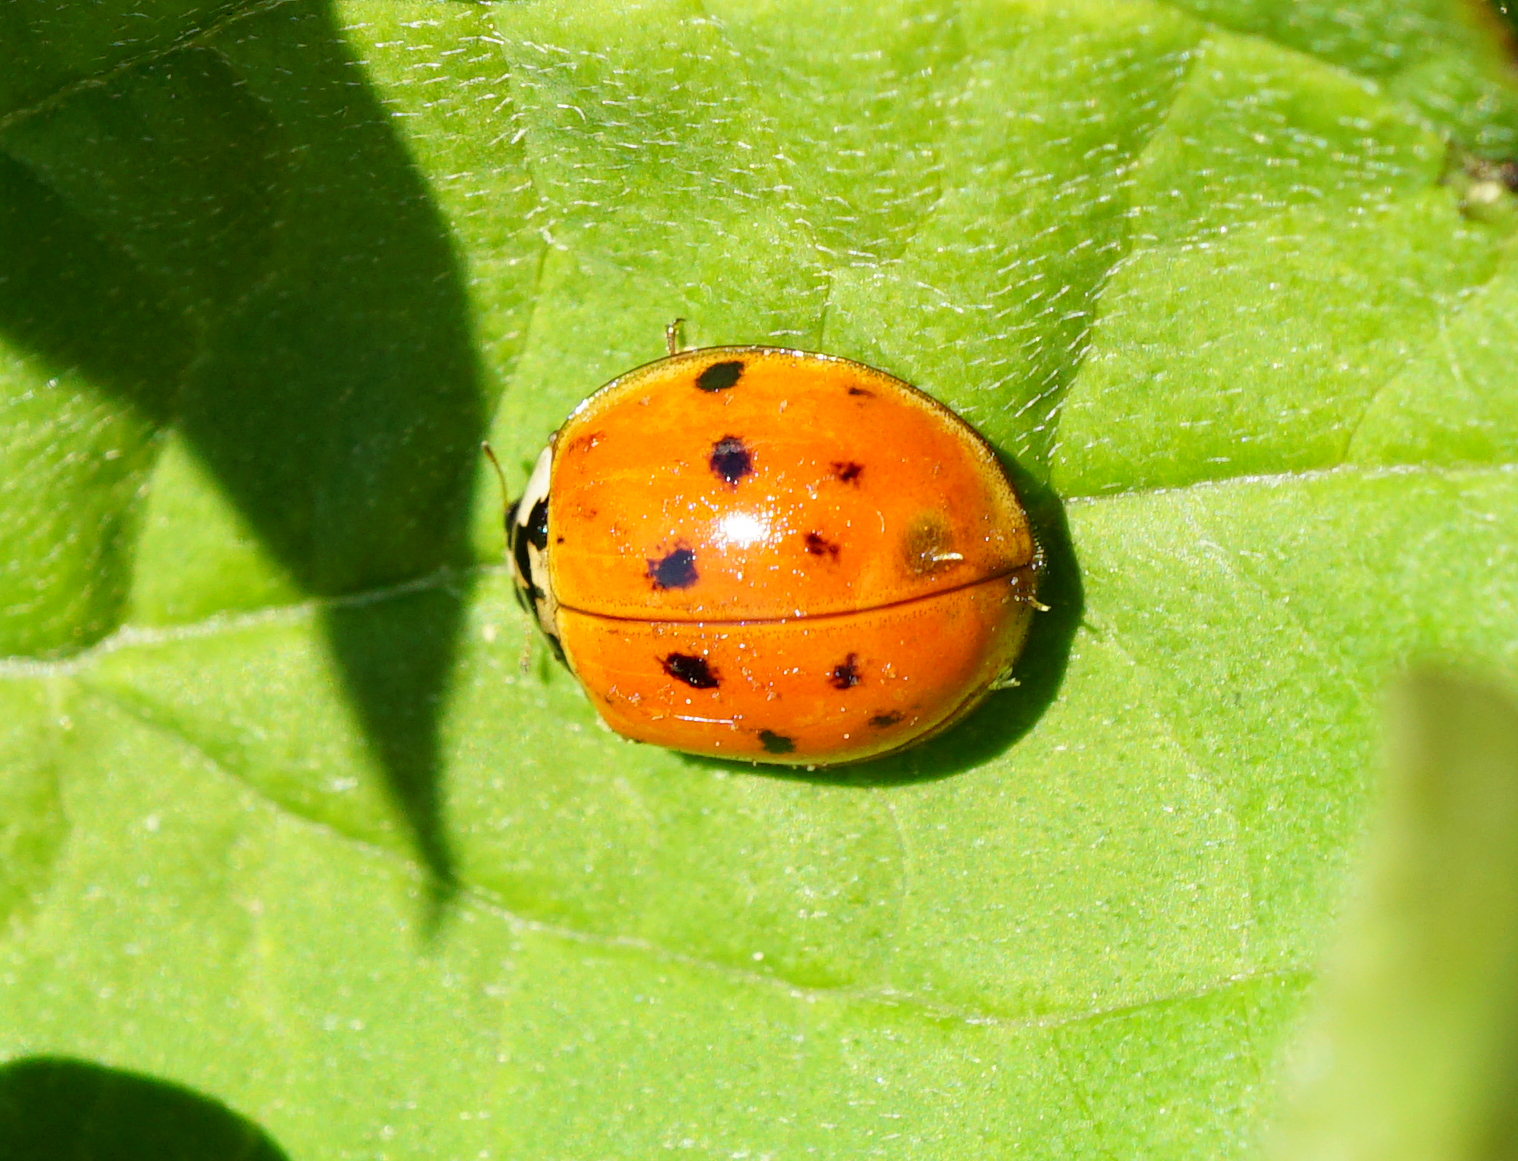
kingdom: Animalia
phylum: Arthropoda
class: Insecta
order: Coleoptera
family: Coccinellidae
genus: Harmonia
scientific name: Harmonia axyridis
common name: Harlequin ladybird
